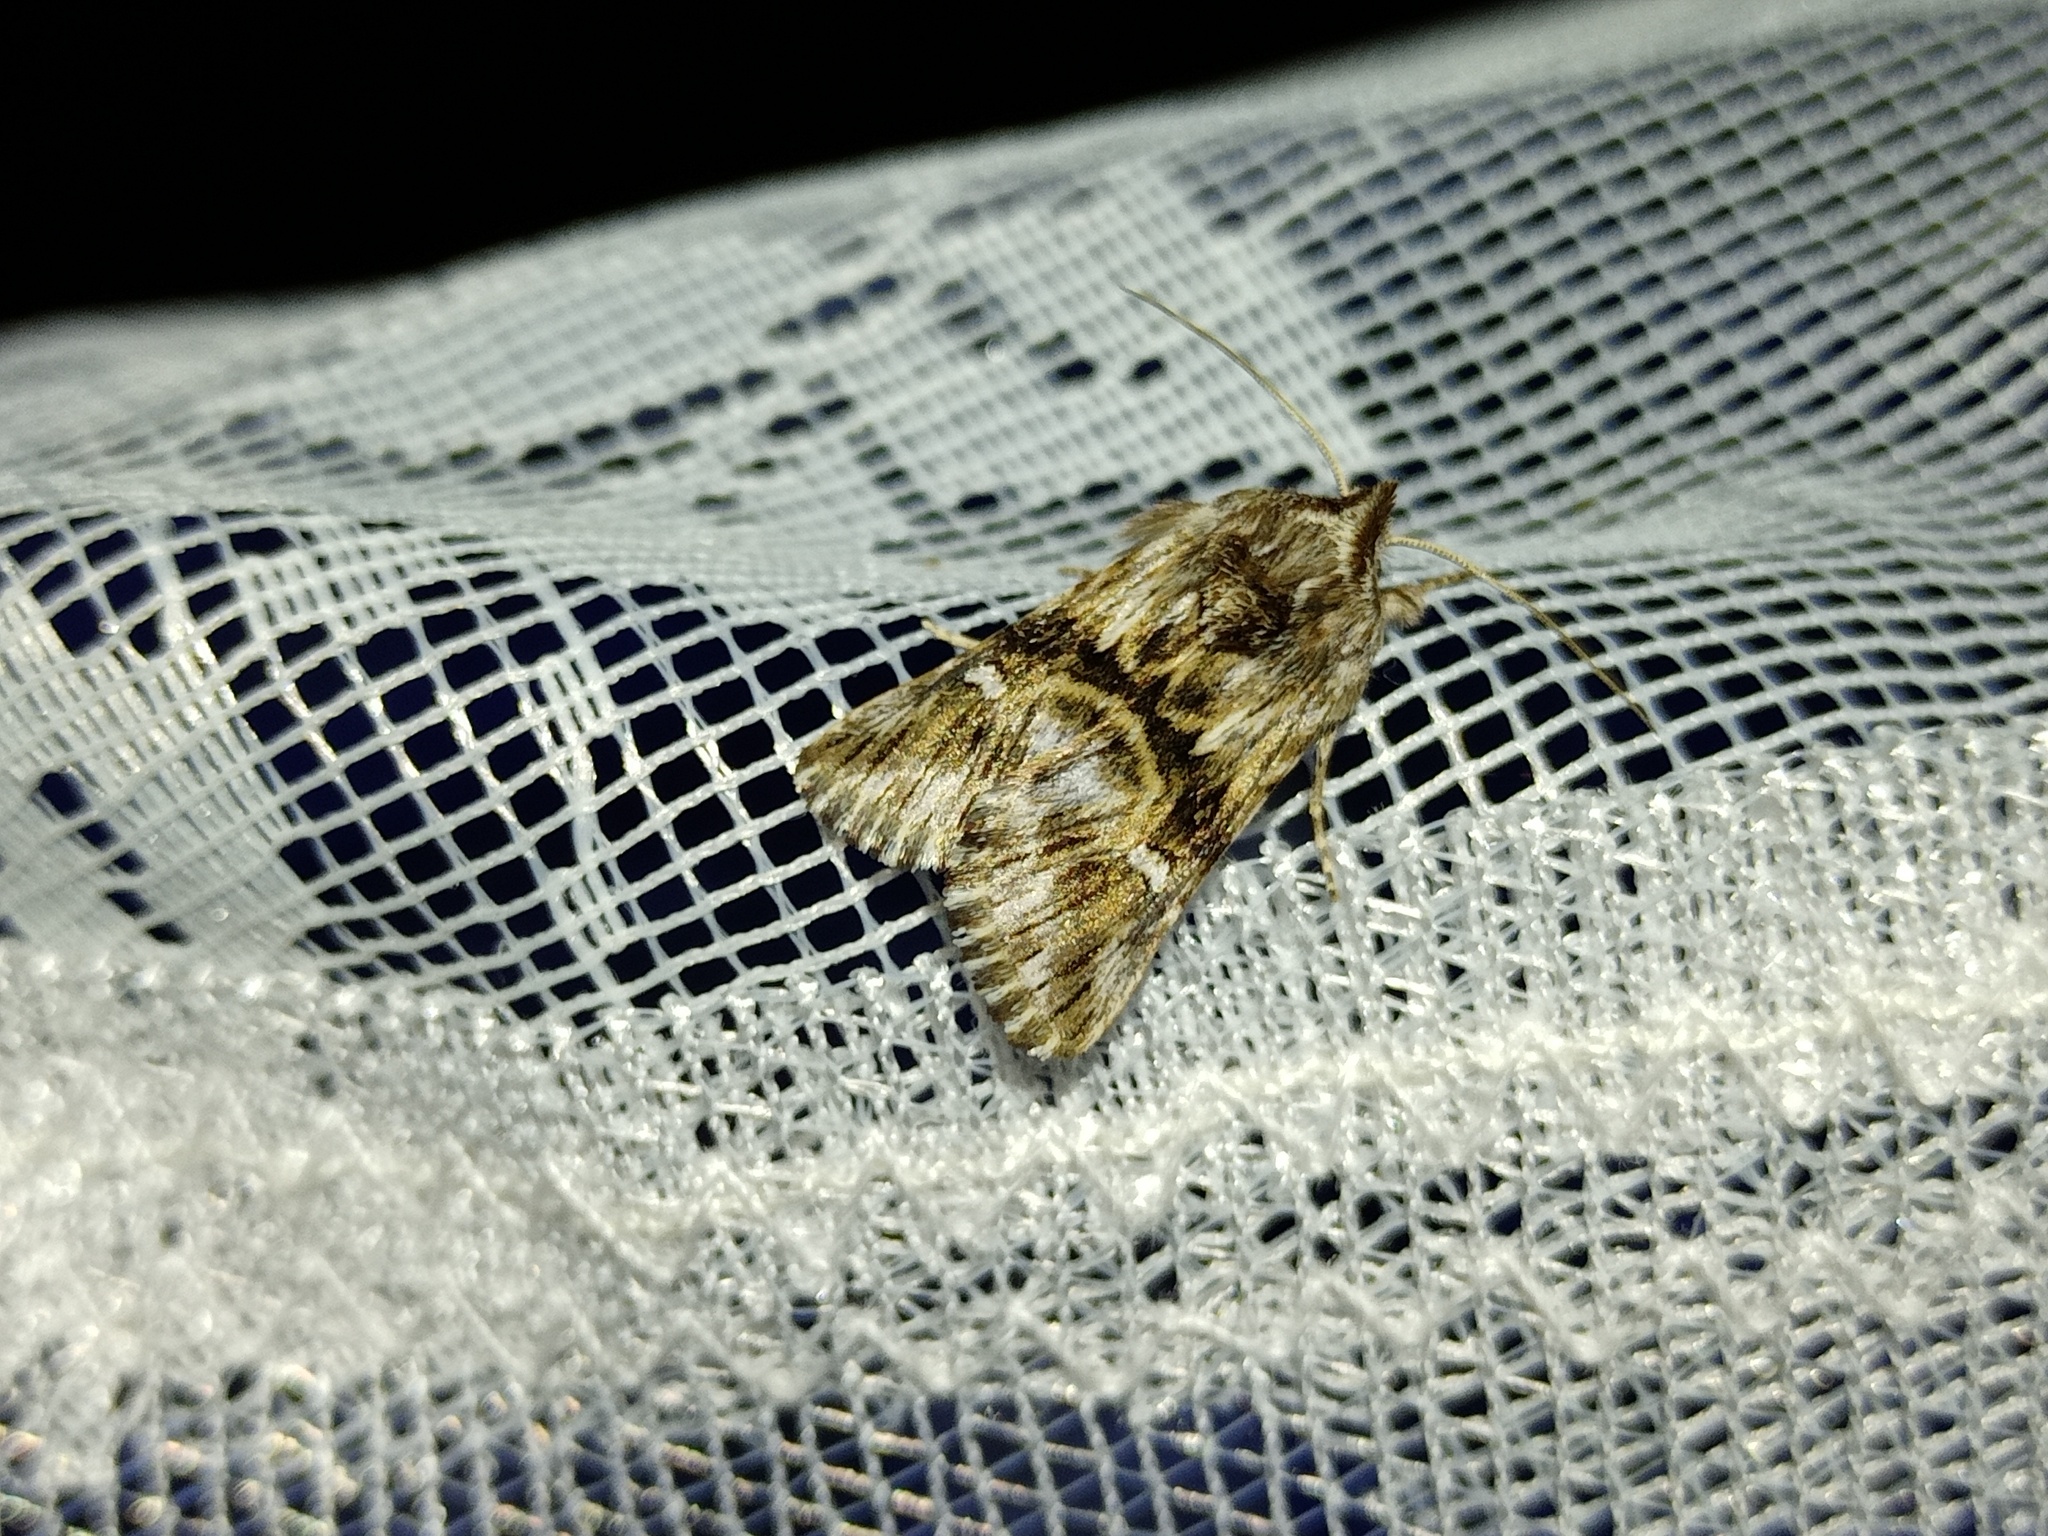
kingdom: Animalia
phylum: Arthropoda
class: Insecta
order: Lepidoptera
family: Noctuidae
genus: Calophasia
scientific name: Calophasia lunula
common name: Toadflax brocade
